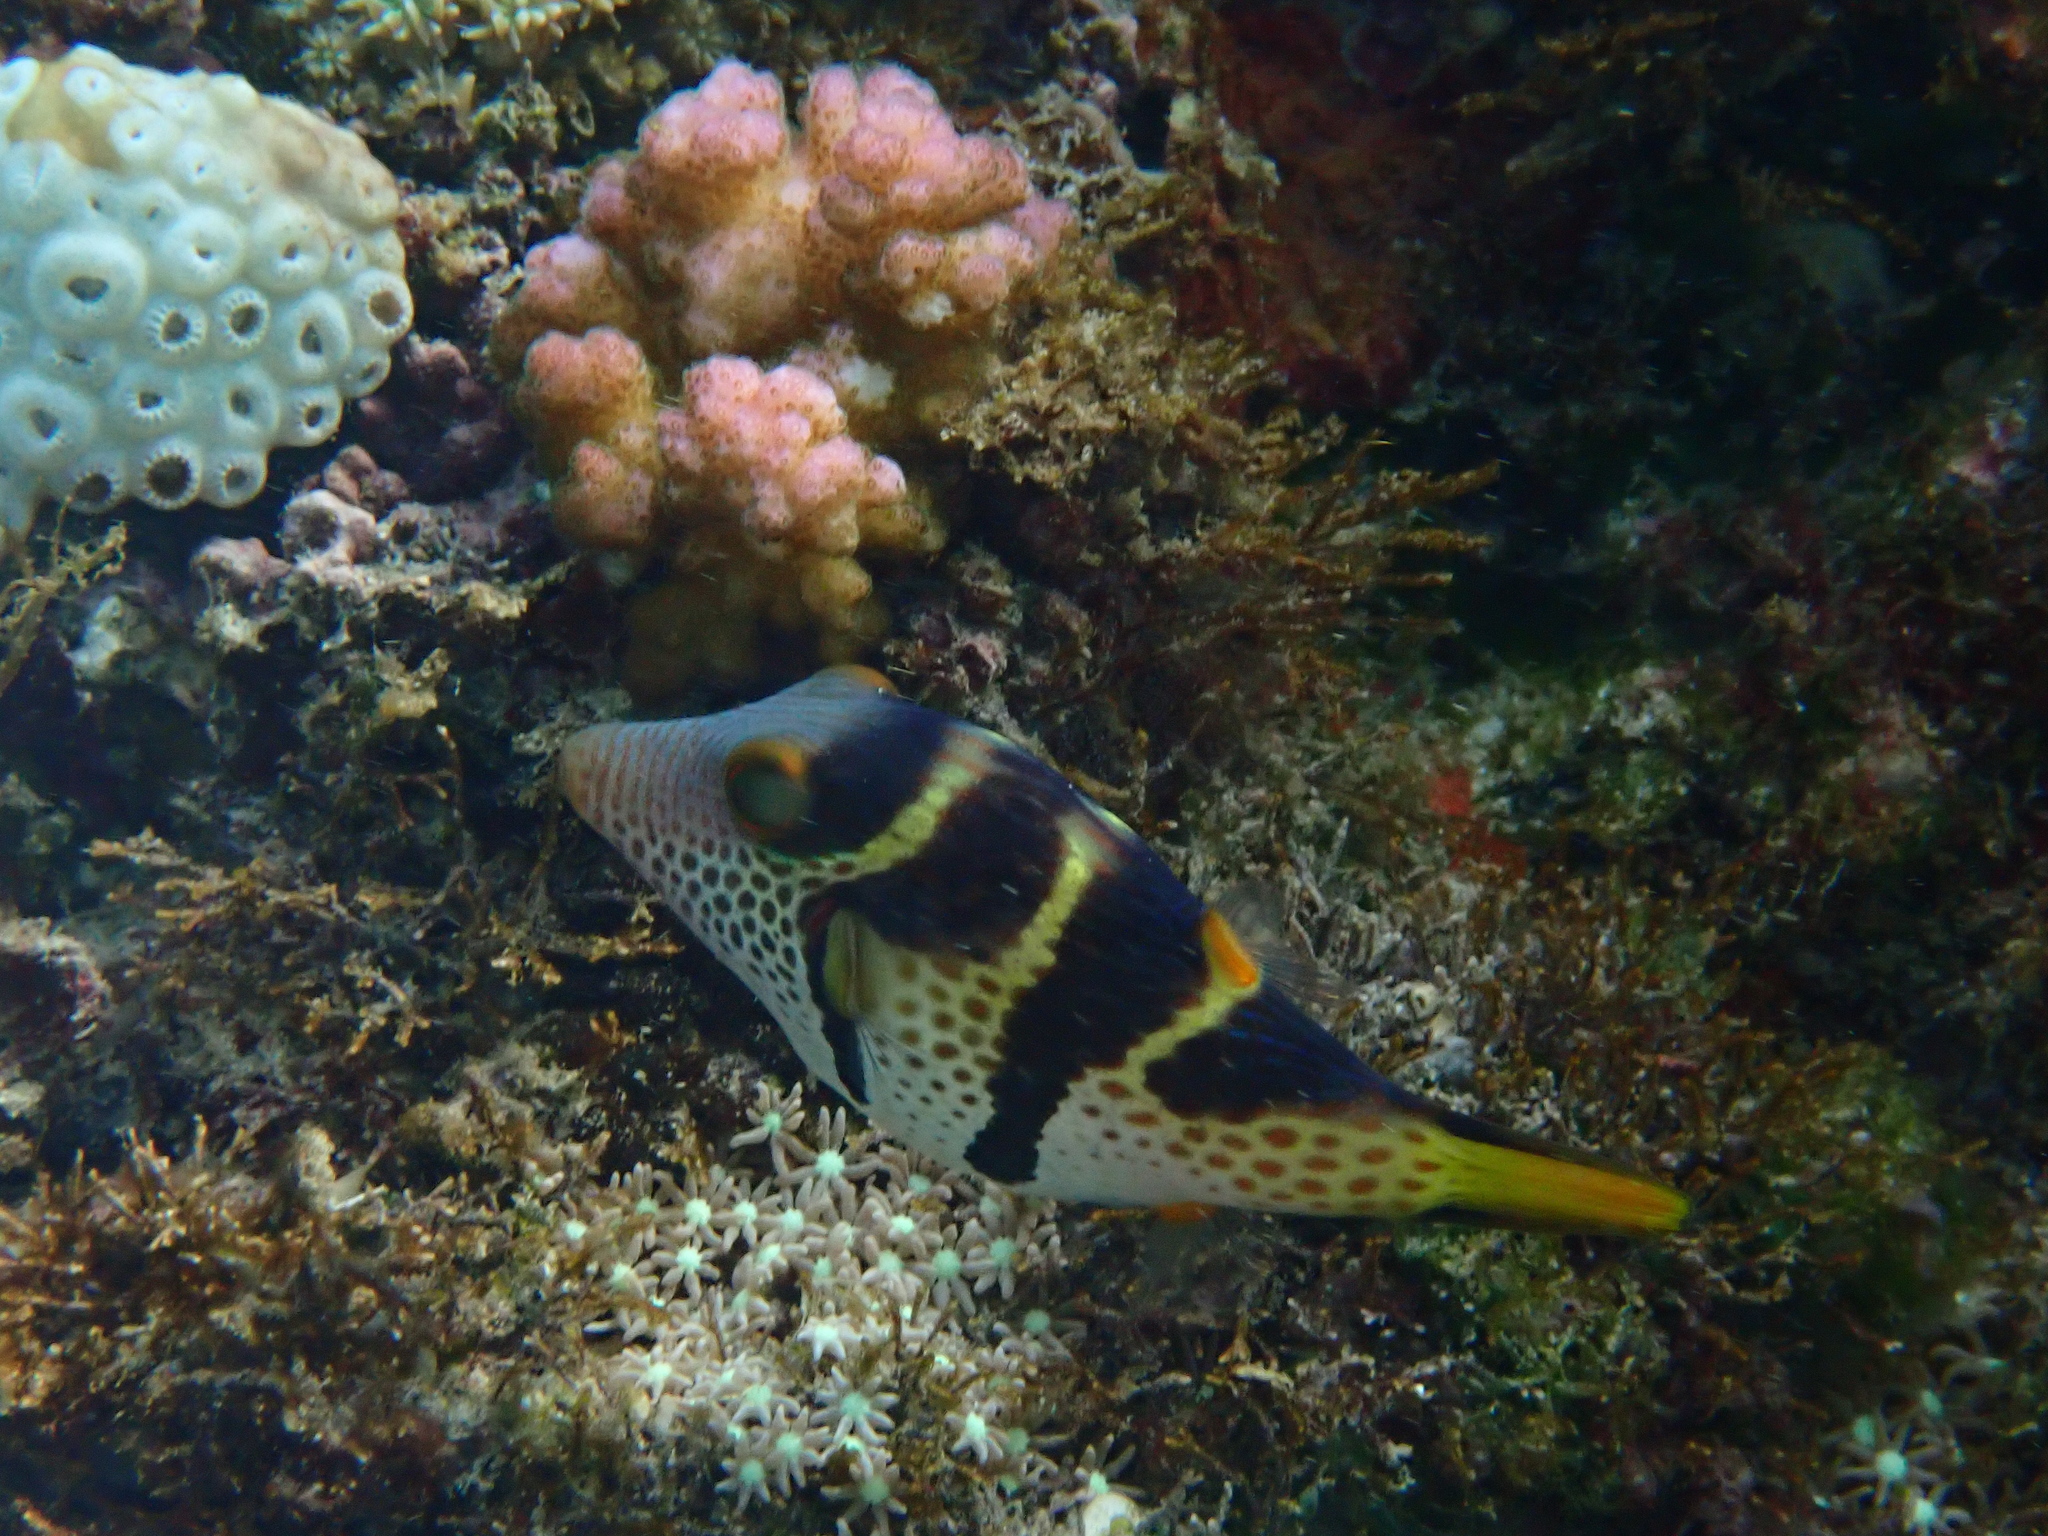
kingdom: Animalia
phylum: Chordata
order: Tetraodontiformes
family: Tetraodontidae
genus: Canthigaster
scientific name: Canthigaster valentini
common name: Banded toby
